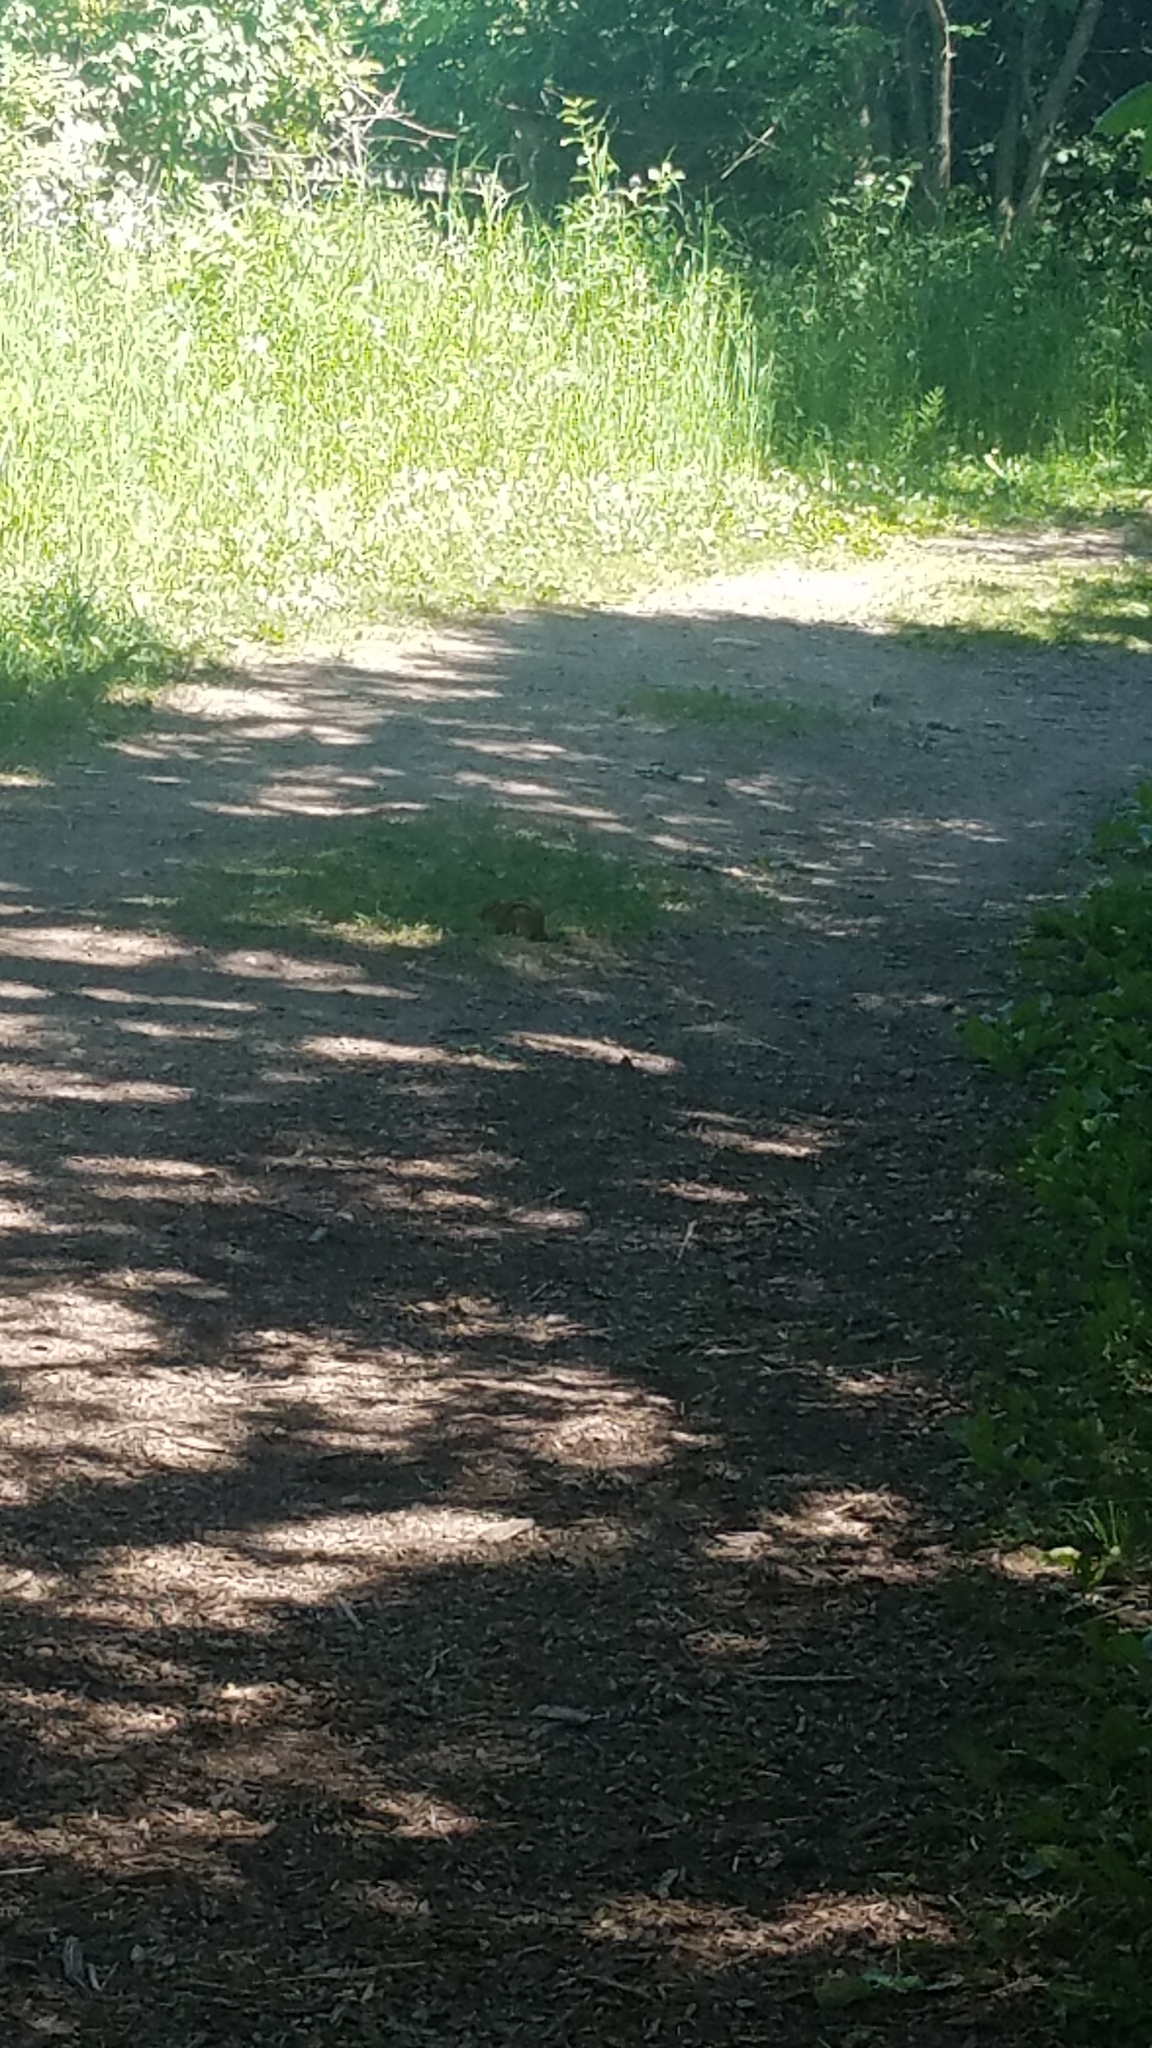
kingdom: Animalia
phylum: Chordata
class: Mammalia
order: Rodentia
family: Sciuridae
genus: Tamias
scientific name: Tamias striatus
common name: Eastern chipmunk
